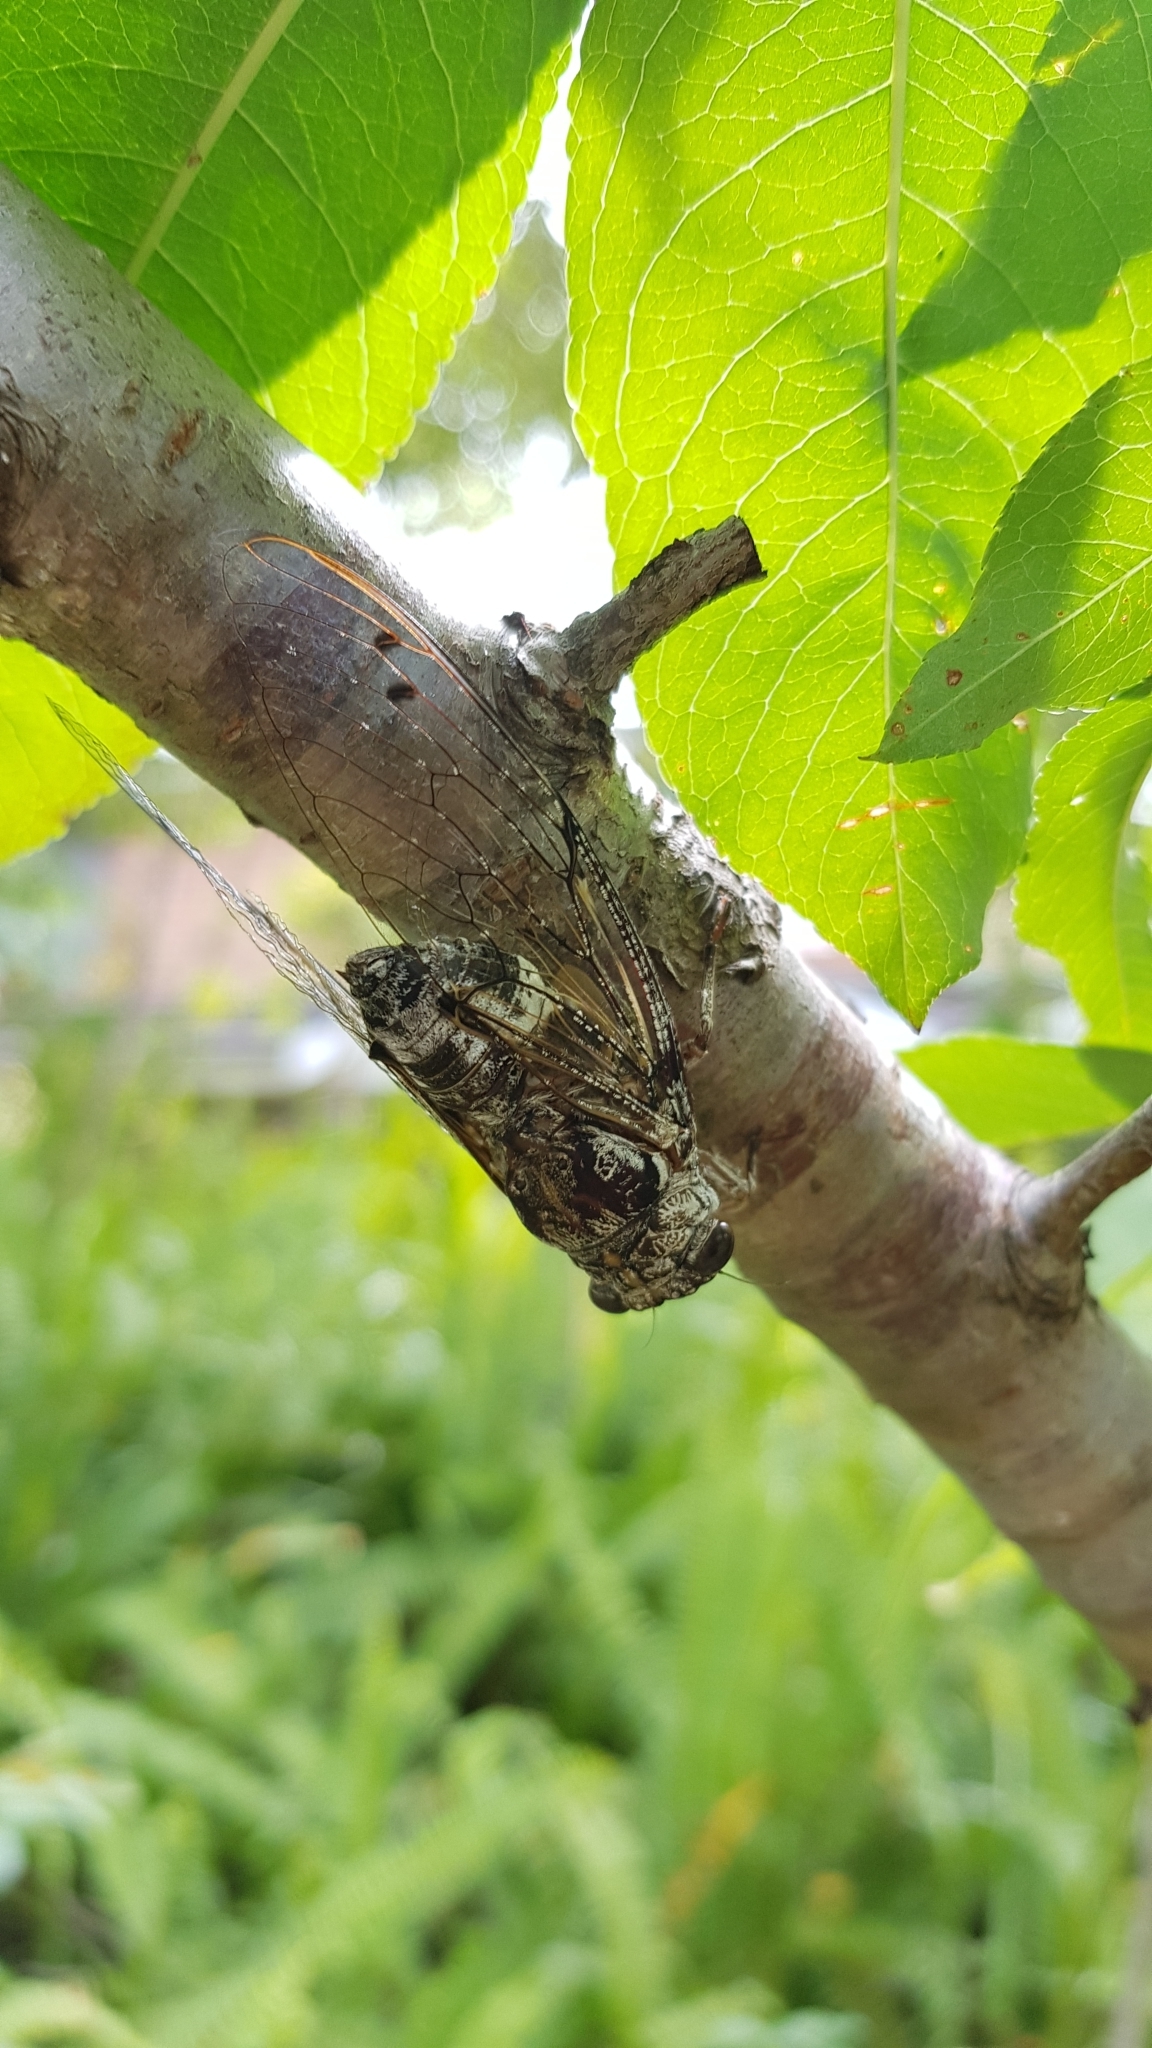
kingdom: Animalia
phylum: Arthropoda
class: Insecta
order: Hemiptera
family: Cicadidae
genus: Aleeta
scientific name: Aleeta curvicosta
